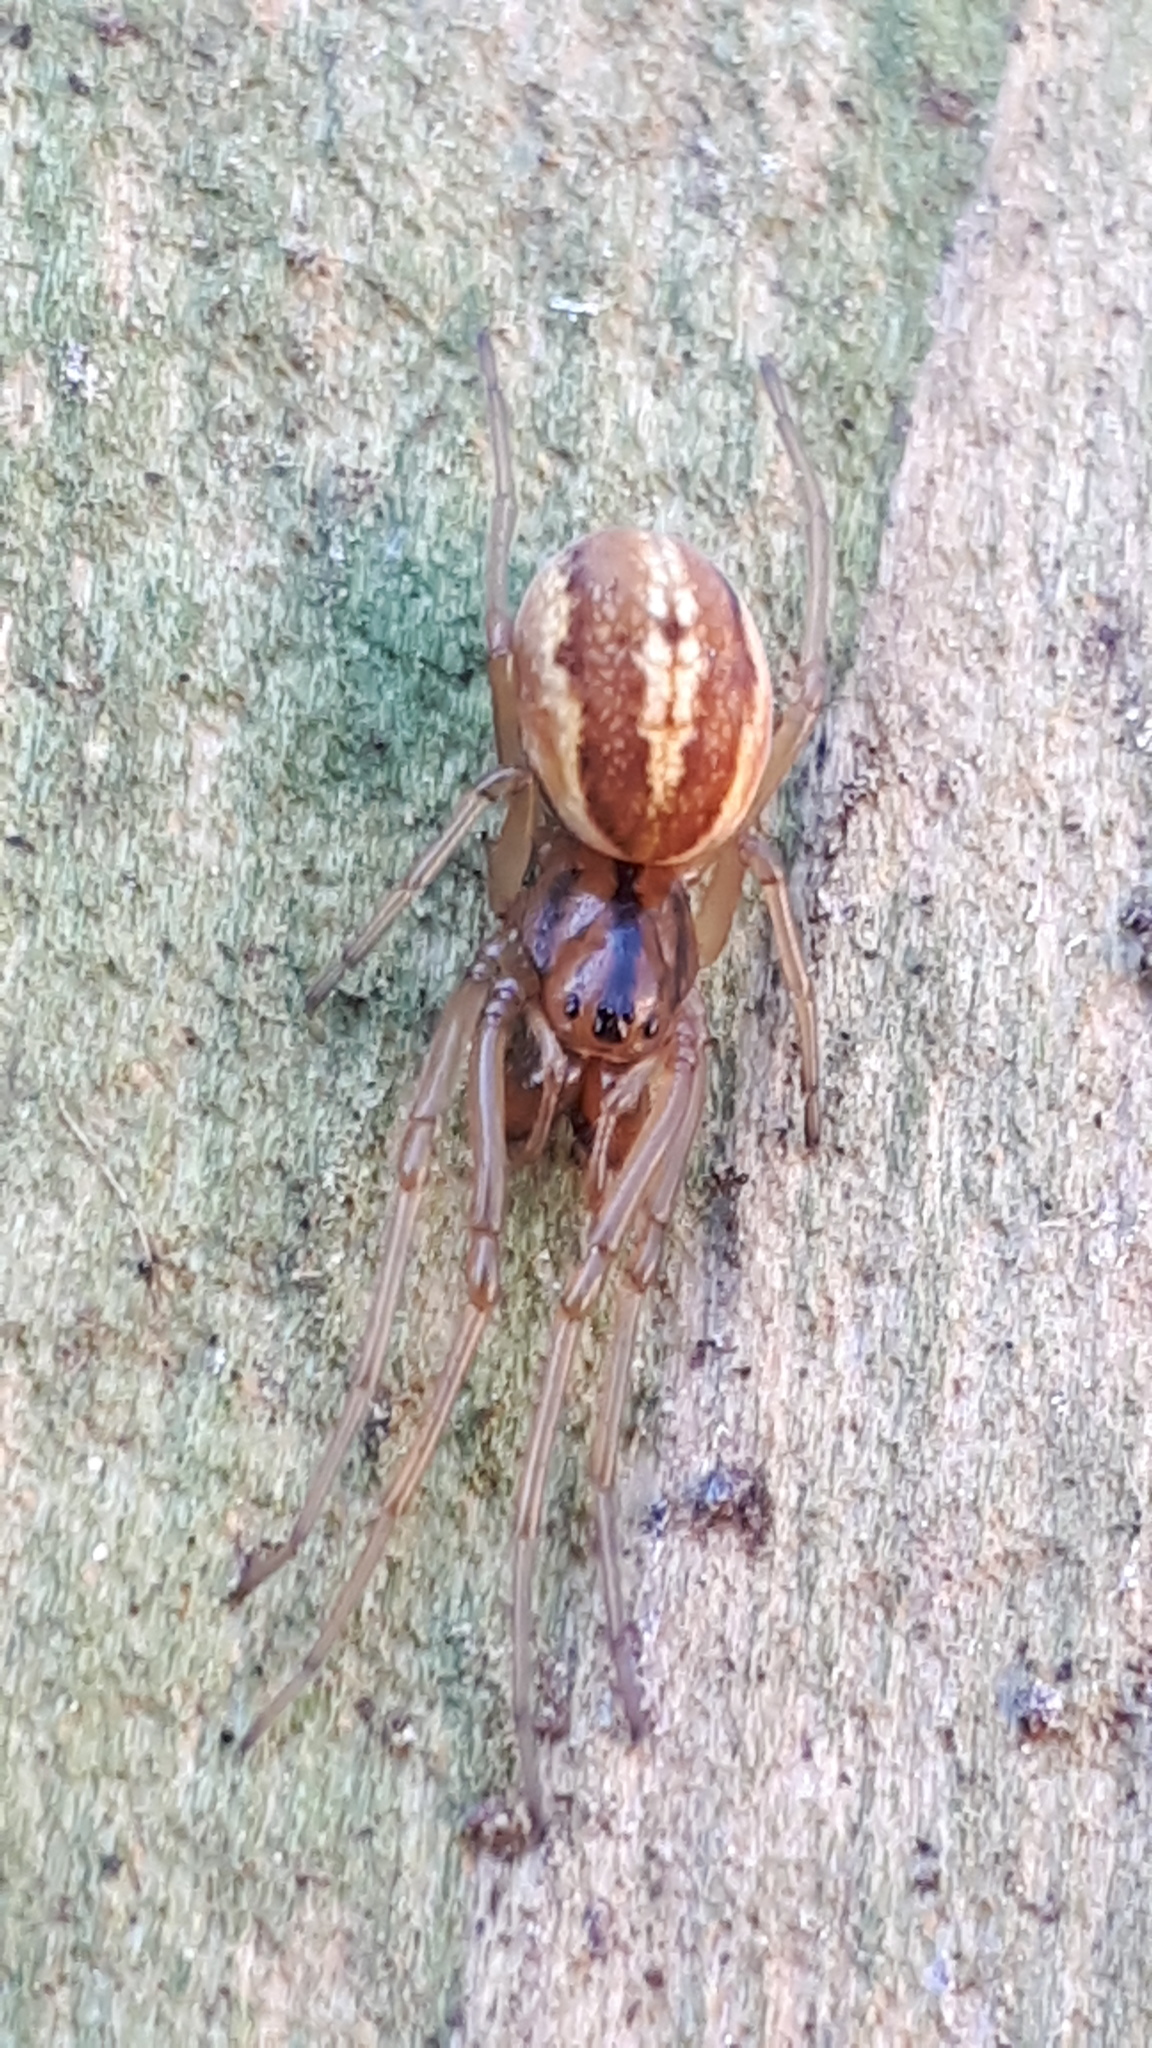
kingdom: Animalia
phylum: Arthropoda
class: Arachnida
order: Araneae
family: Tetragnathidae
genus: Pachygnatha
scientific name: Pachygnatha clercki
